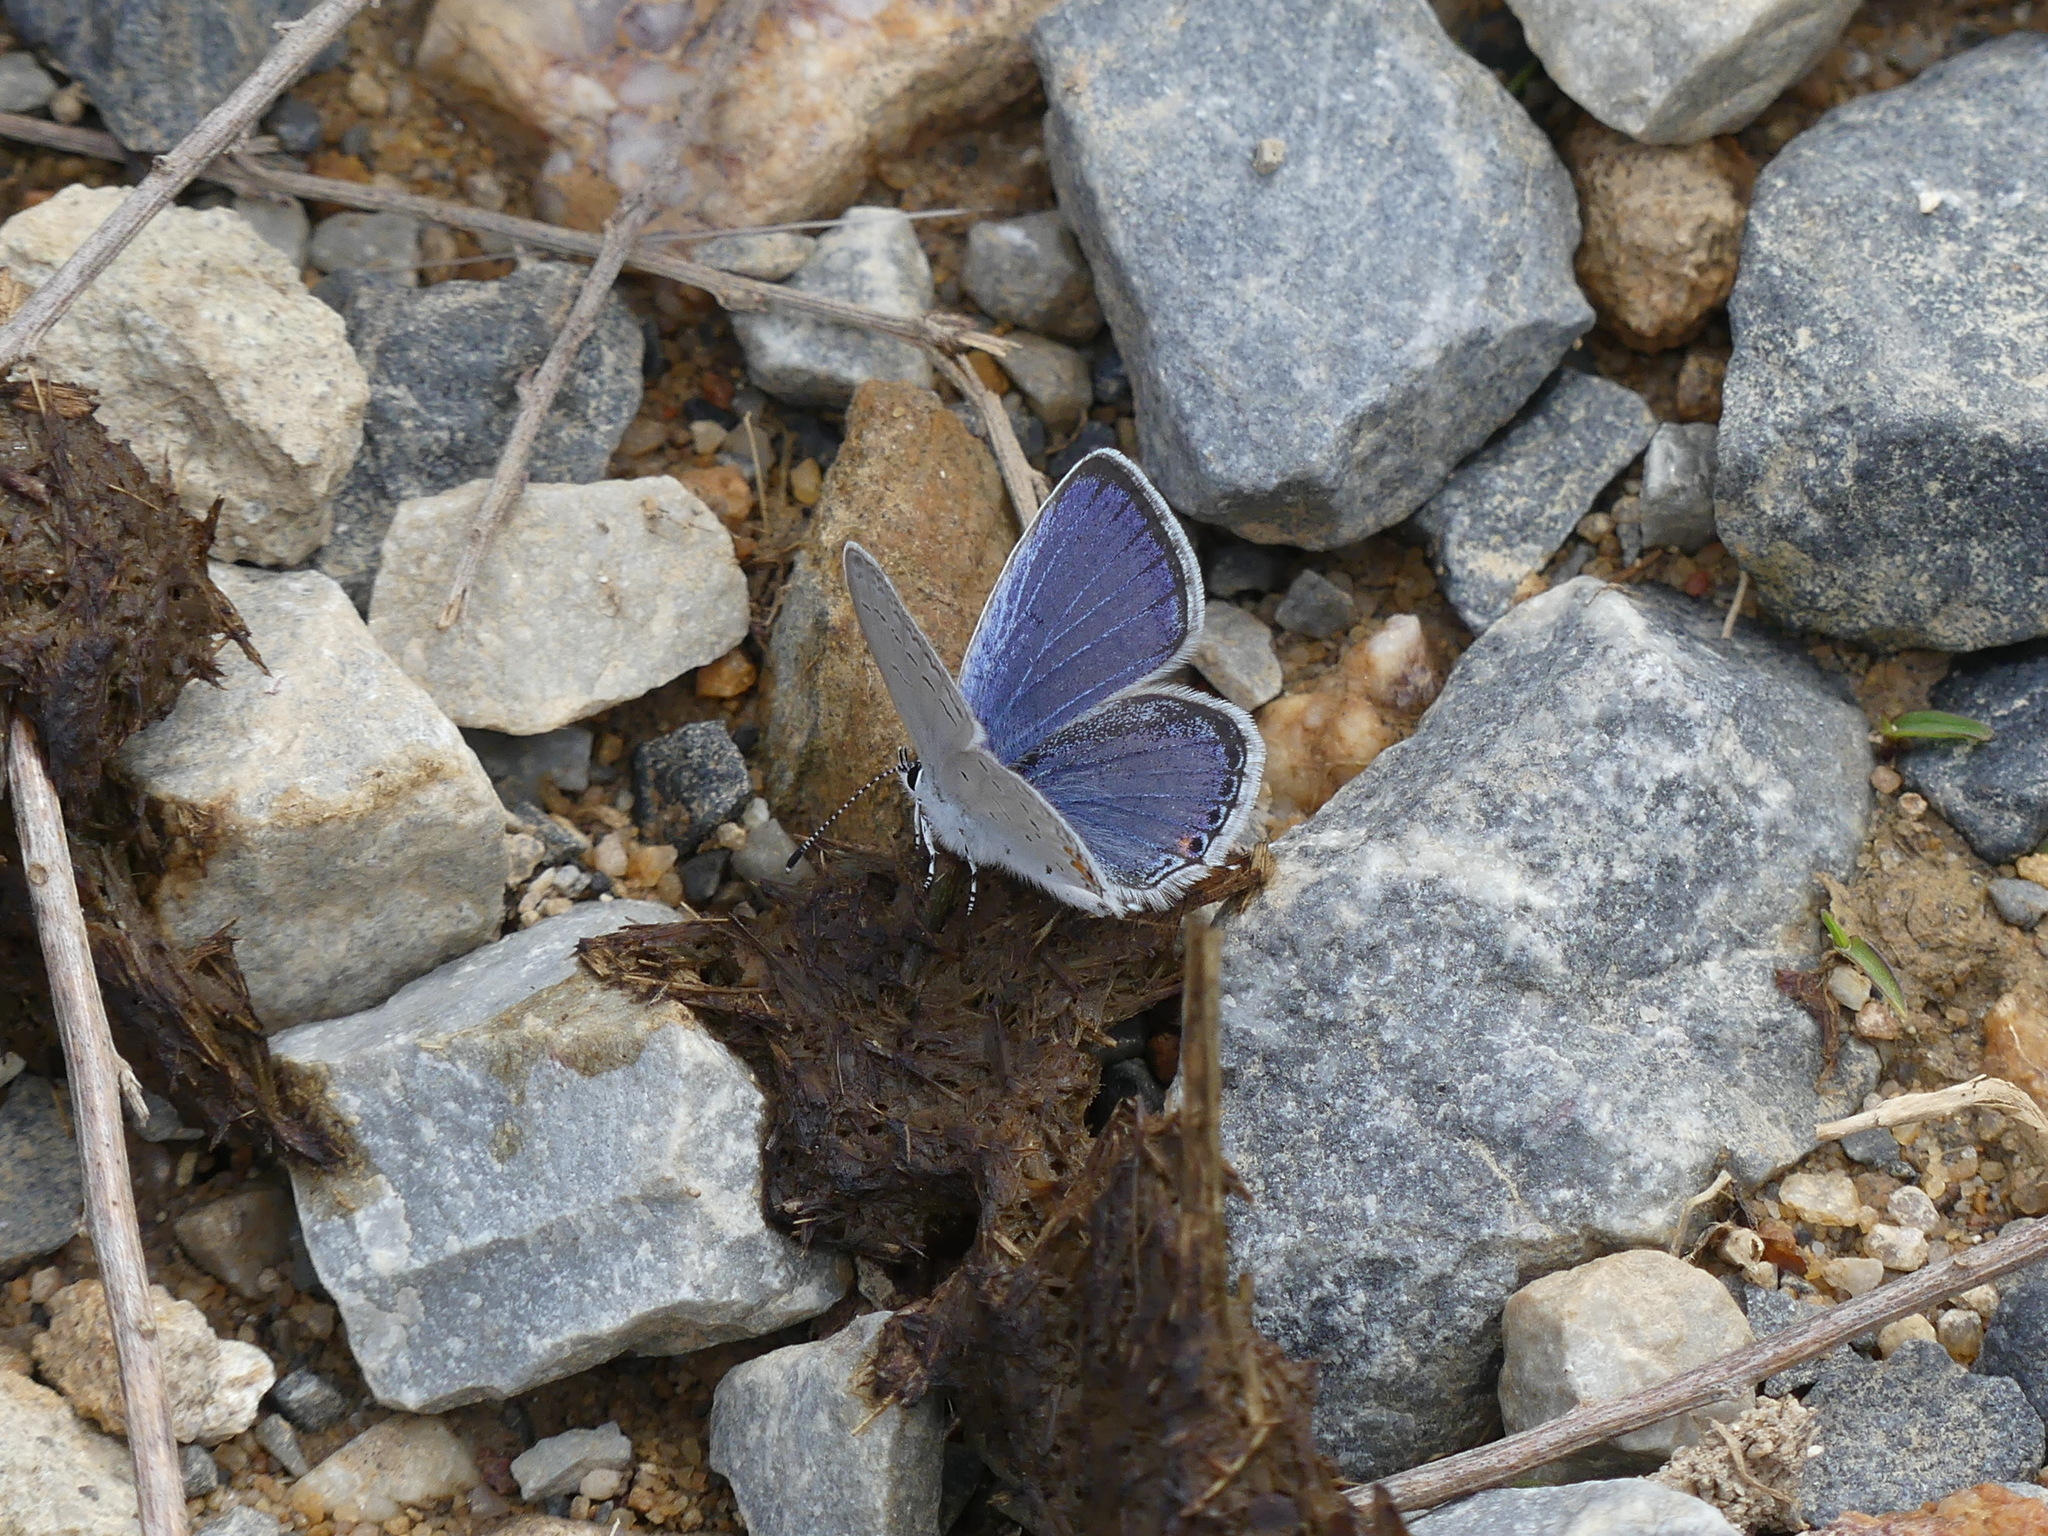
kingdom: Animalia
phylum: Arthropoda
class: Insecta
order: Lepidoptera
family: Lycaenidae
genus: Elkalyce
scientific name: Elkalyce comyntas
